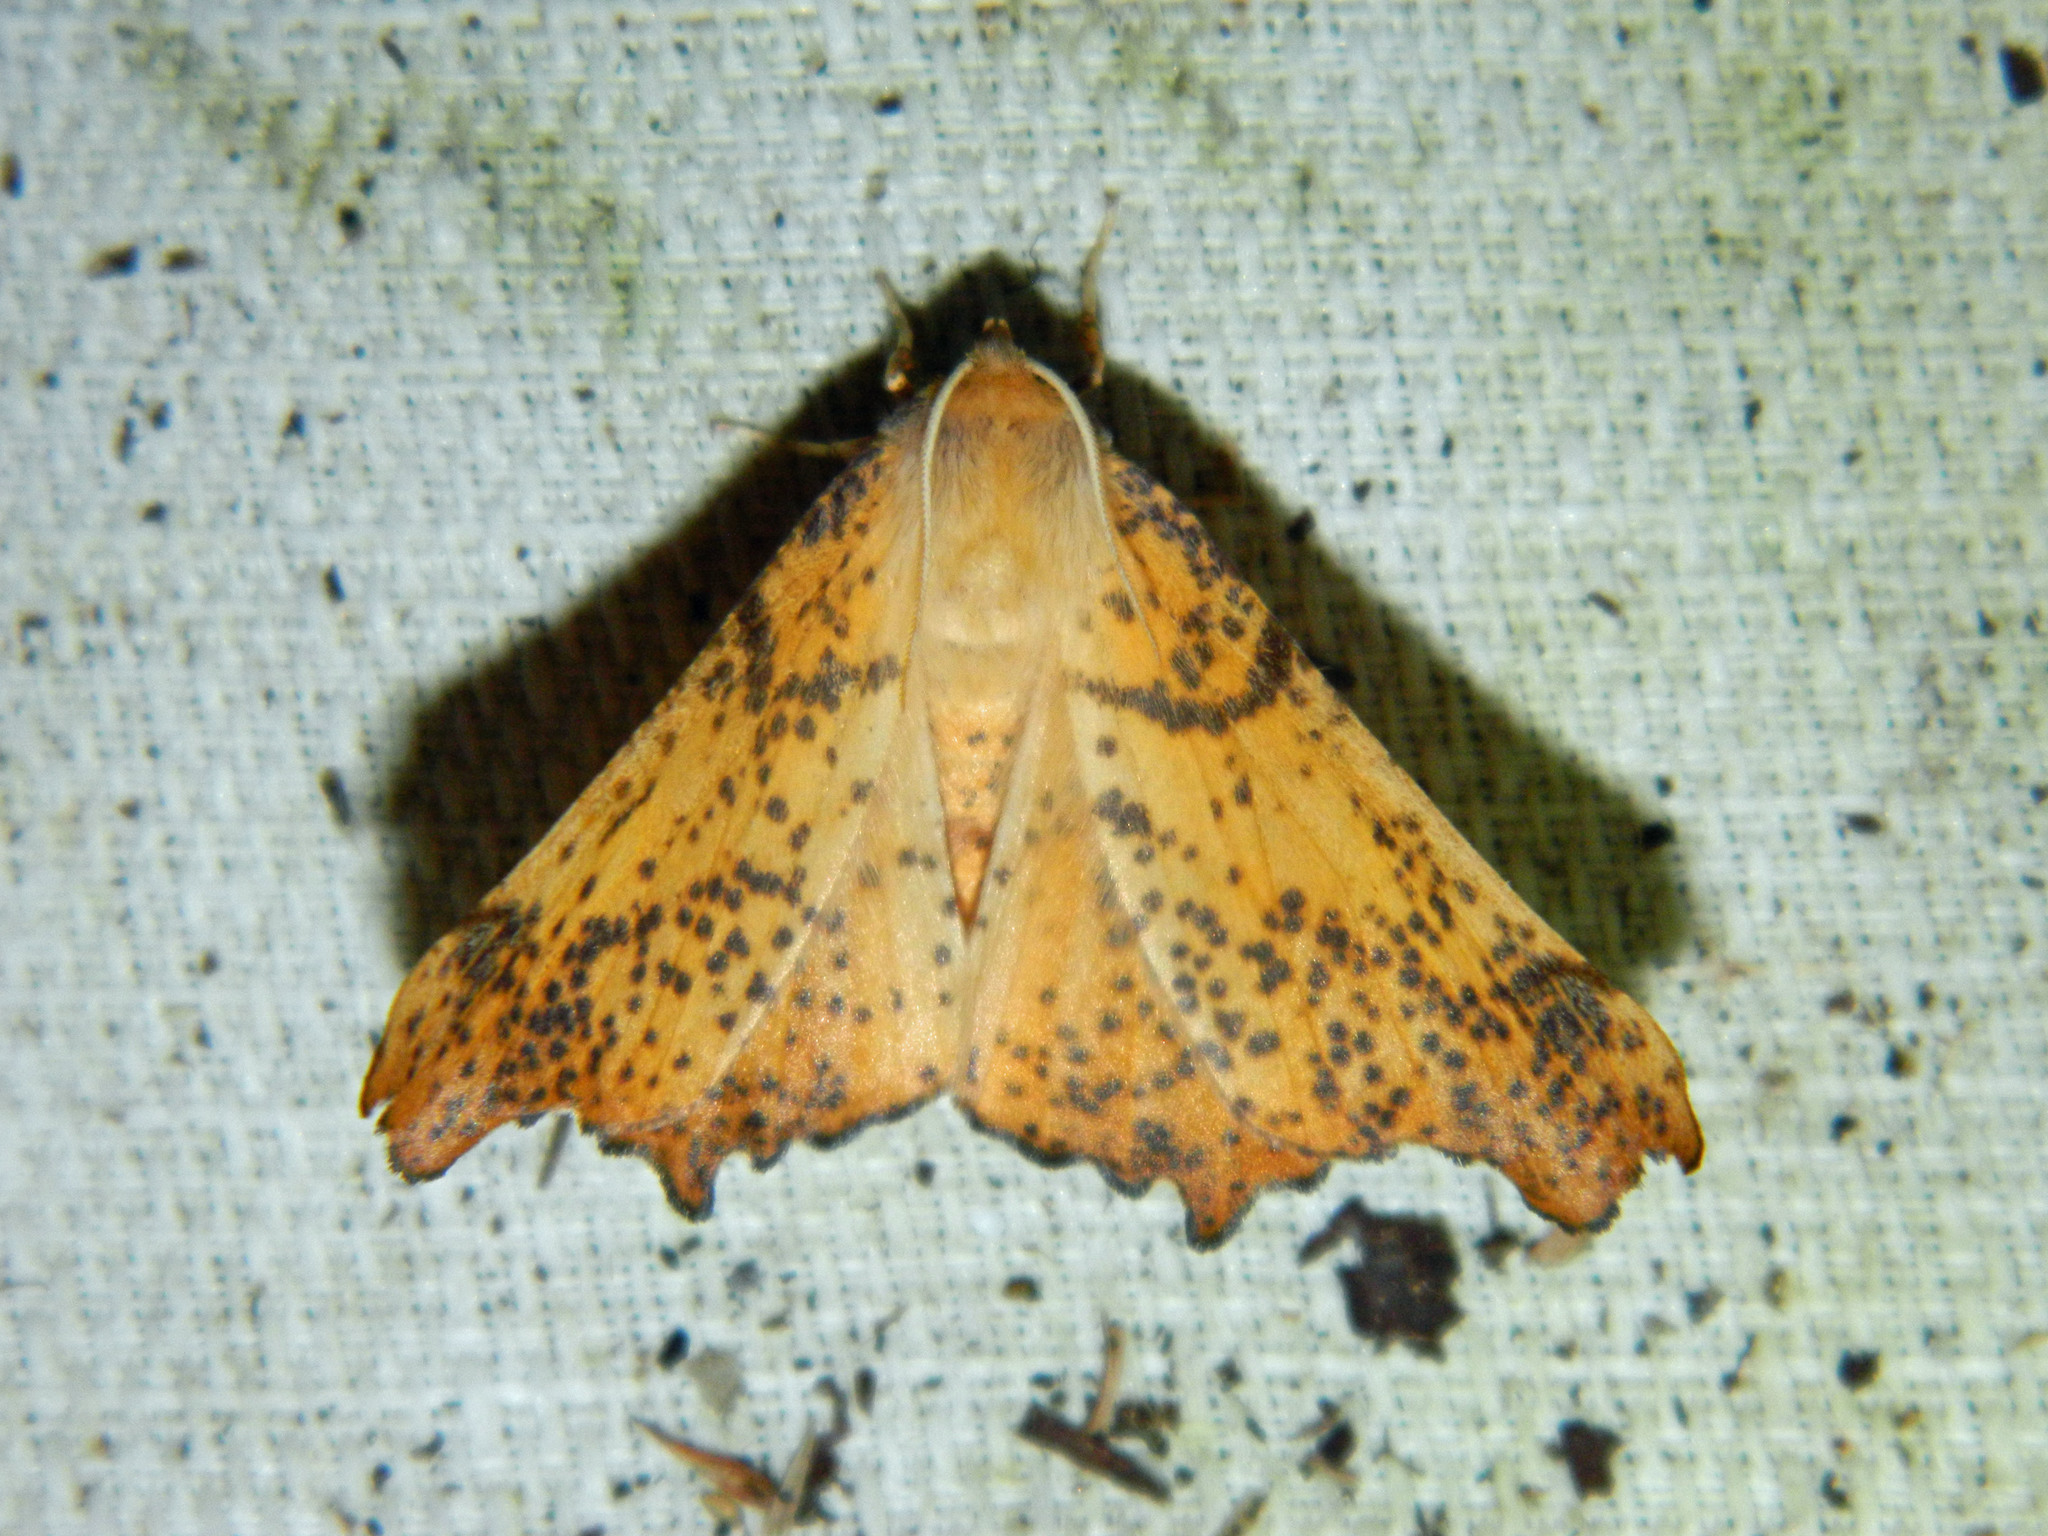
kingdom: Animalia
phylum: Arthropoda
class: Insecta
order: Lepidoptera
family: Geometridae
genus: Ennomos
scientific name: Ennomos magnaria
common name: Maple spanworm
